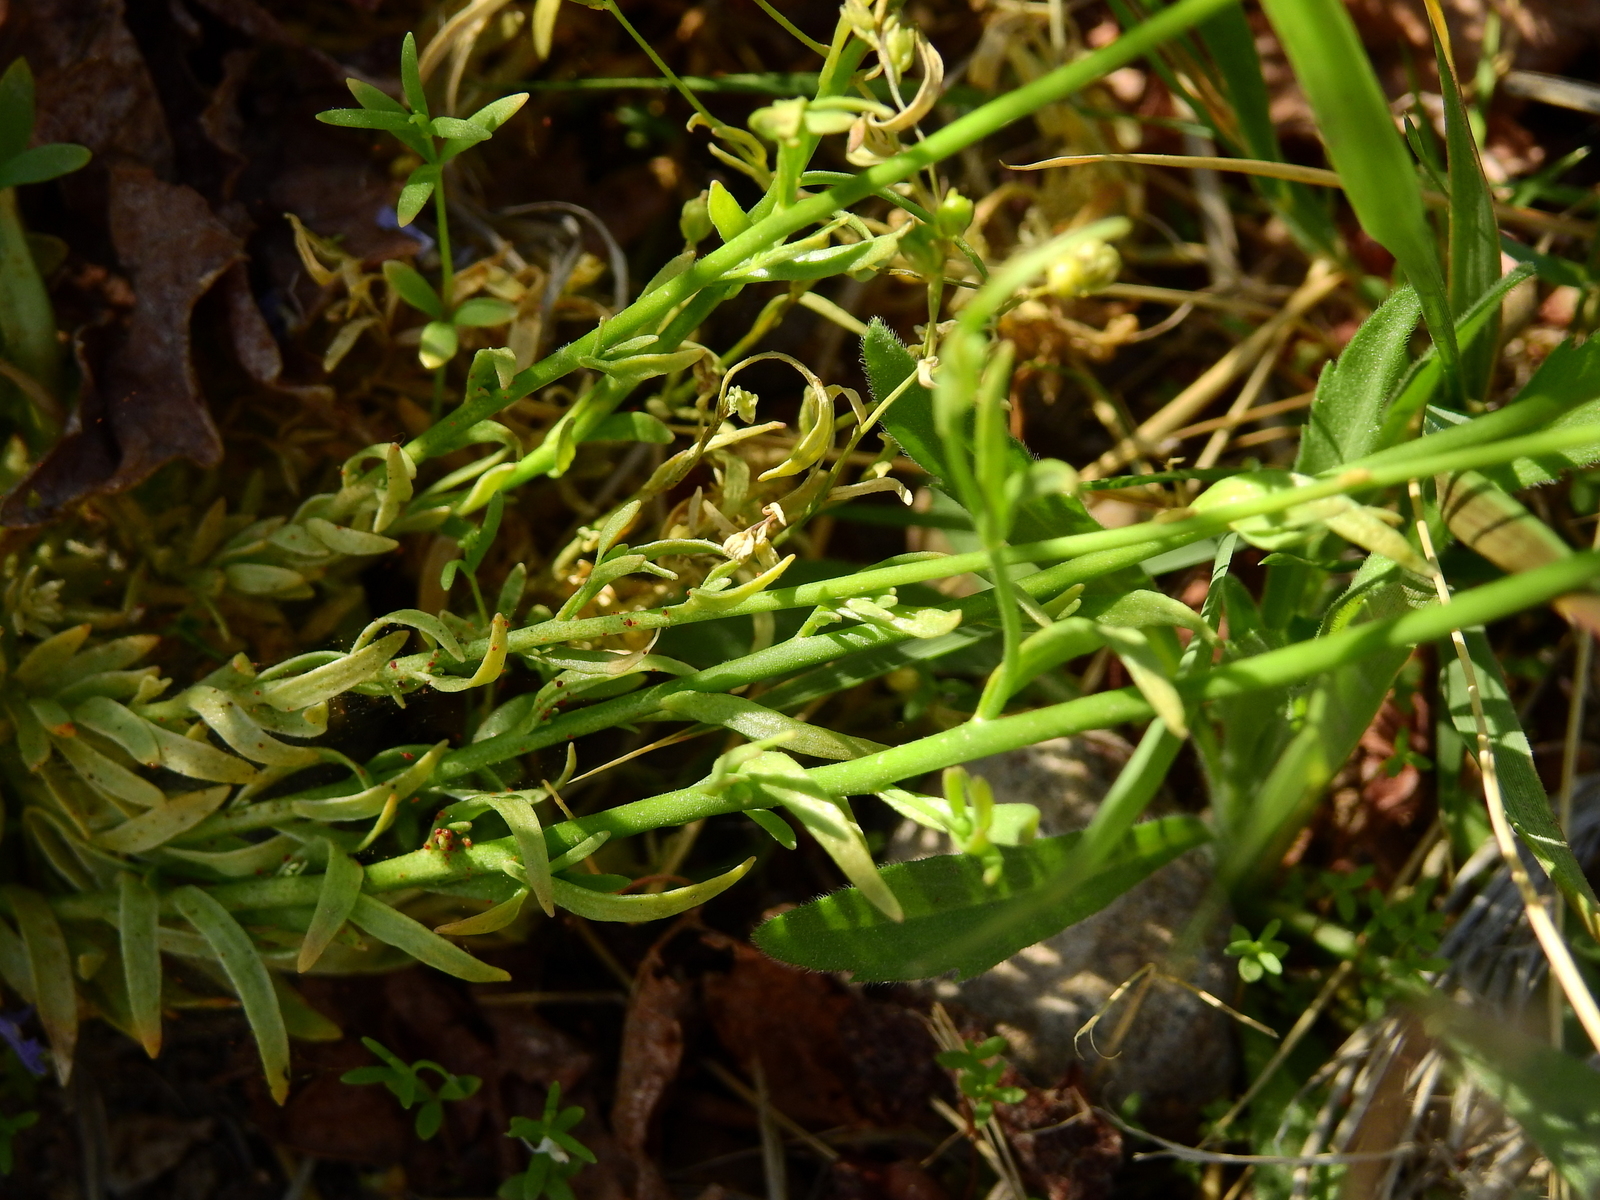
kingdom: Plantae
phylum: Tracheophyta
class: Magnoliopsida
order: Lamiales
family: Plantaginaceae
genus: Nuttallanthus
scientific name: Nuttallanthus canadensis
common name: Blue toadflax
